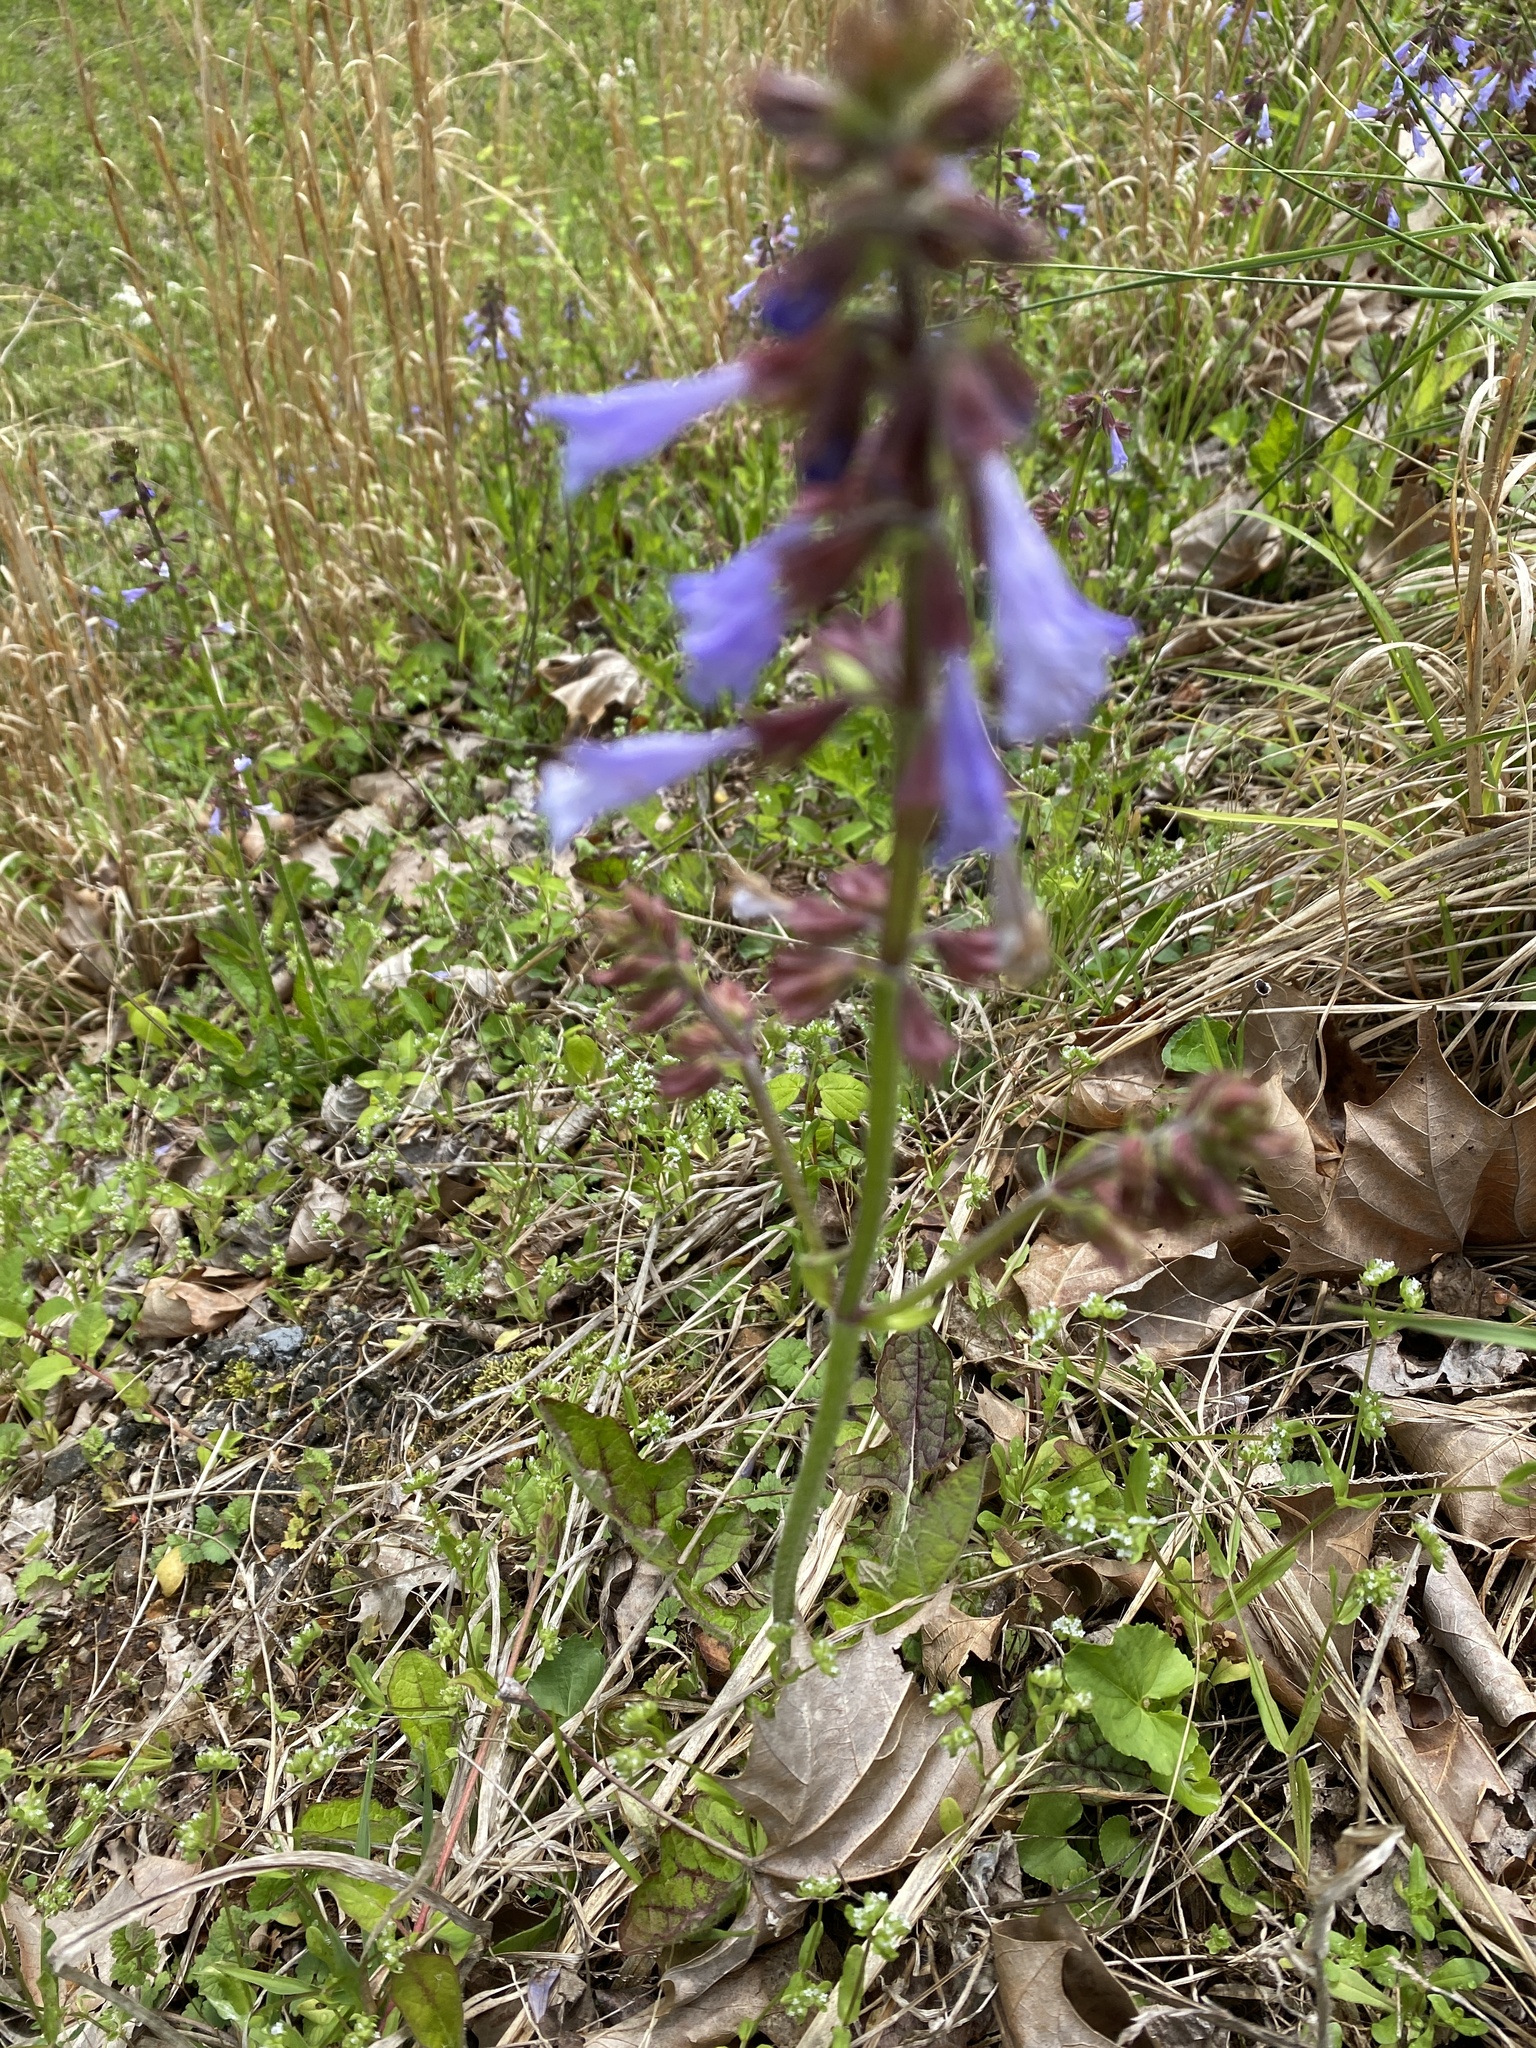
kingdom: Plantae
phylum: Tracheophyta
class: Magnoliopsida
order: Lamiales
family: Lamiaceae
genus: Salvia
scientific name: Salvia lyrata
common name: Cancerweed
